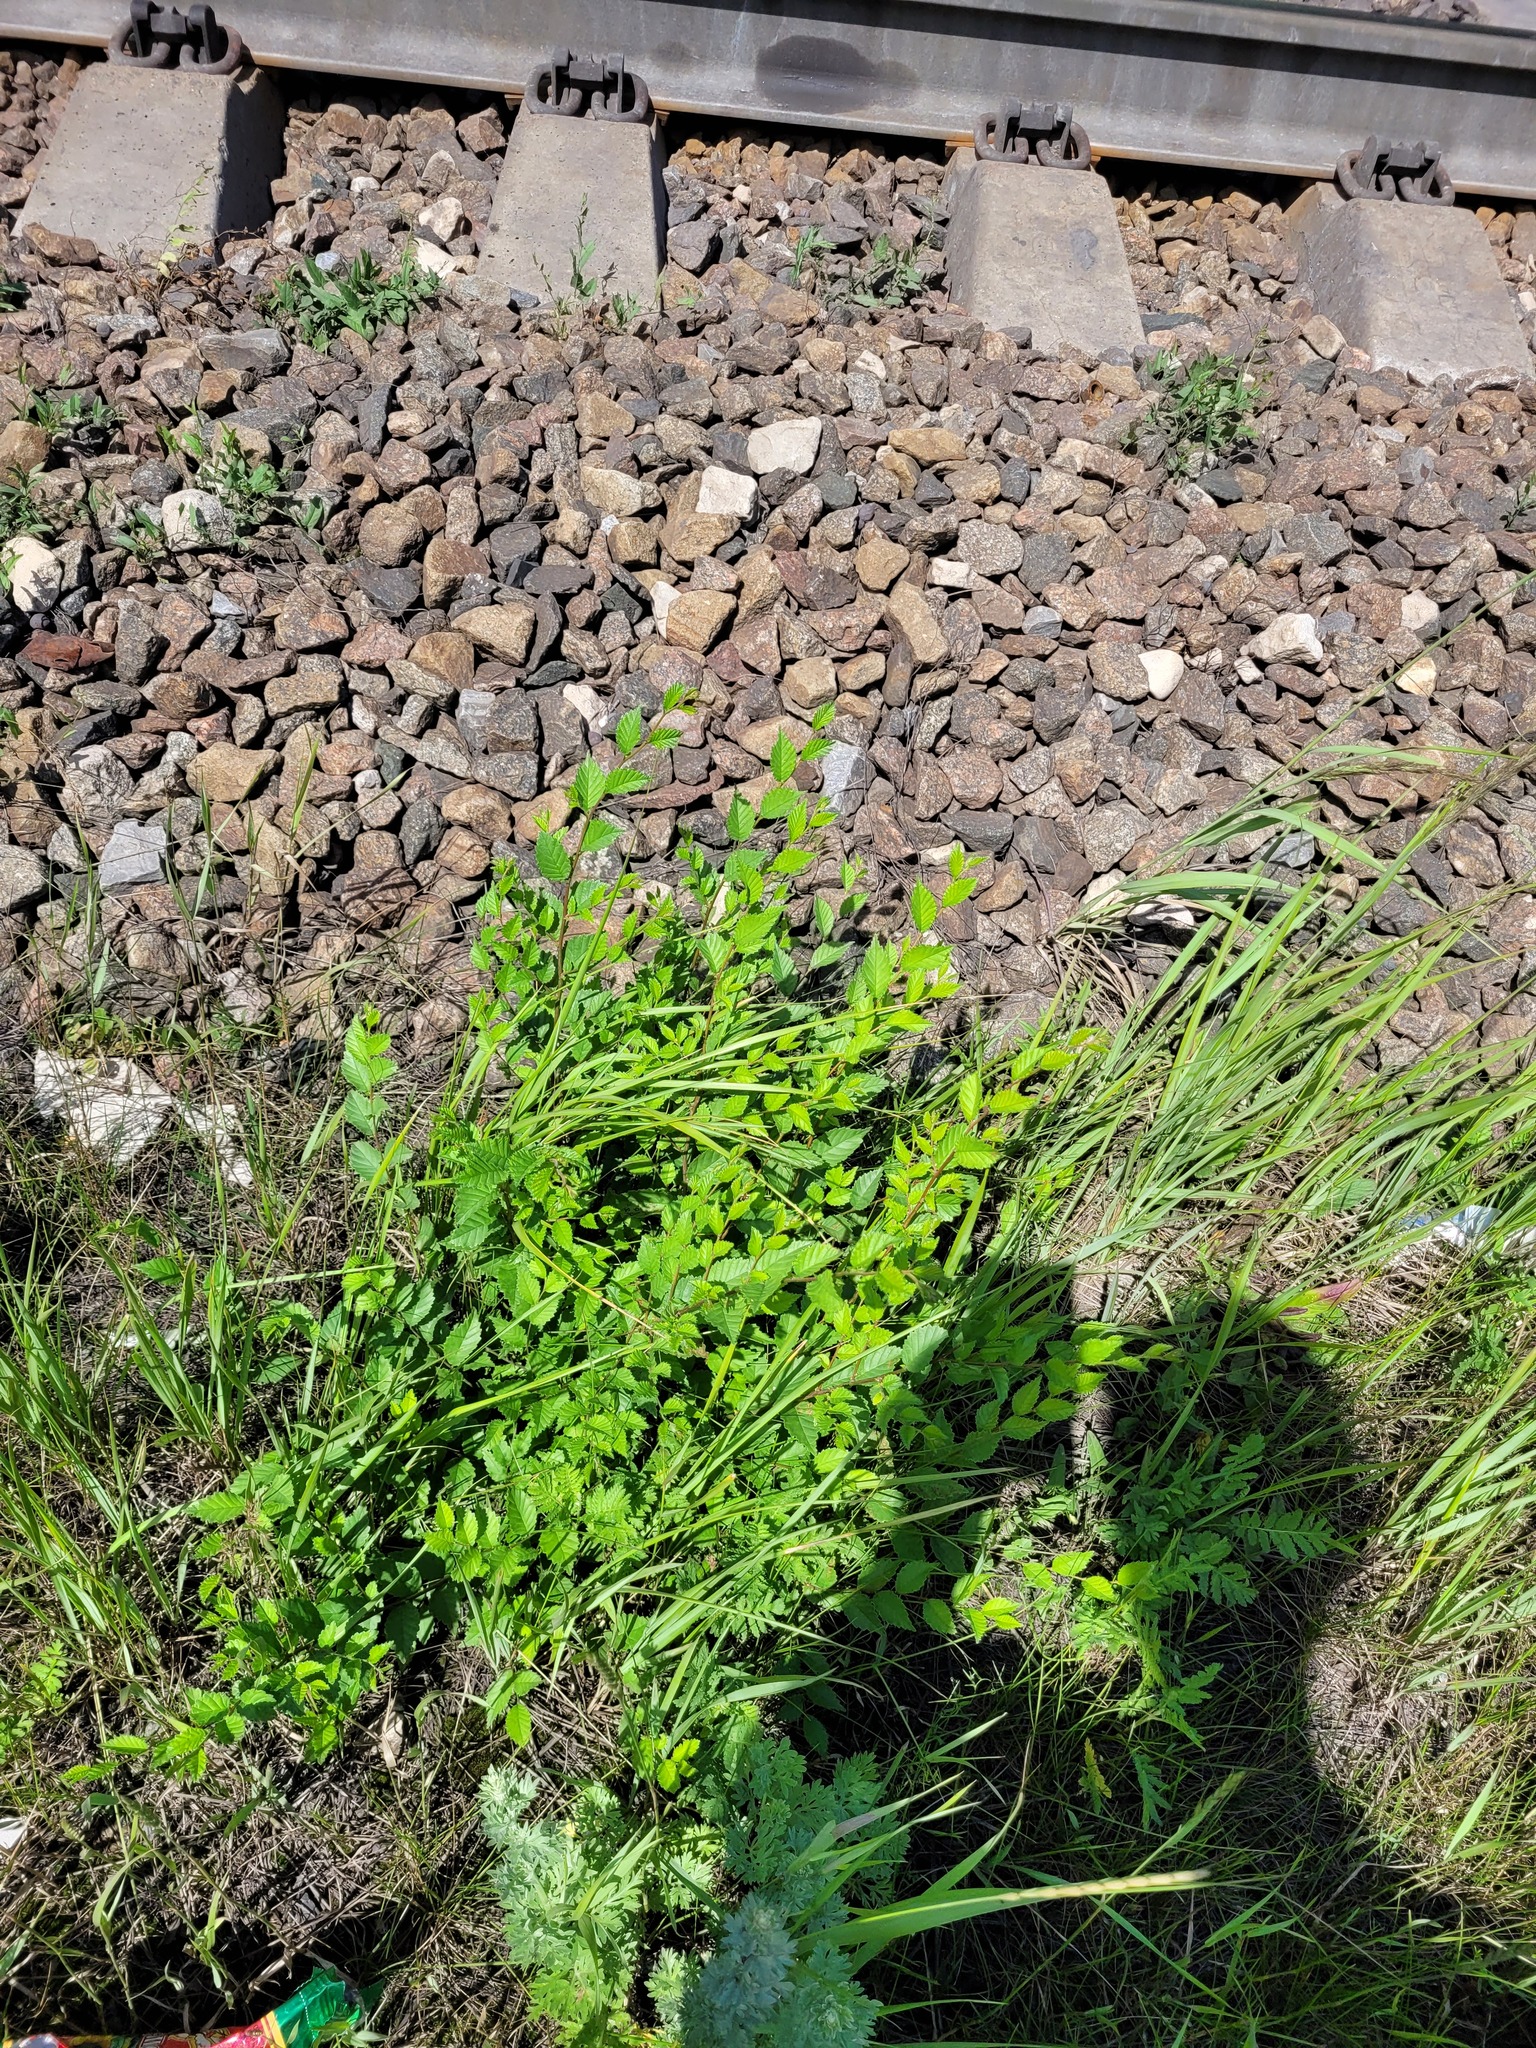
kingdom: Plantae
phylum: Tracheophyta
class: Magnoliopsida
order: Rosales
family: Ulmaceae
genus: Ulmus
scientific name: Ulmus pumila
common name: Siberian elm
